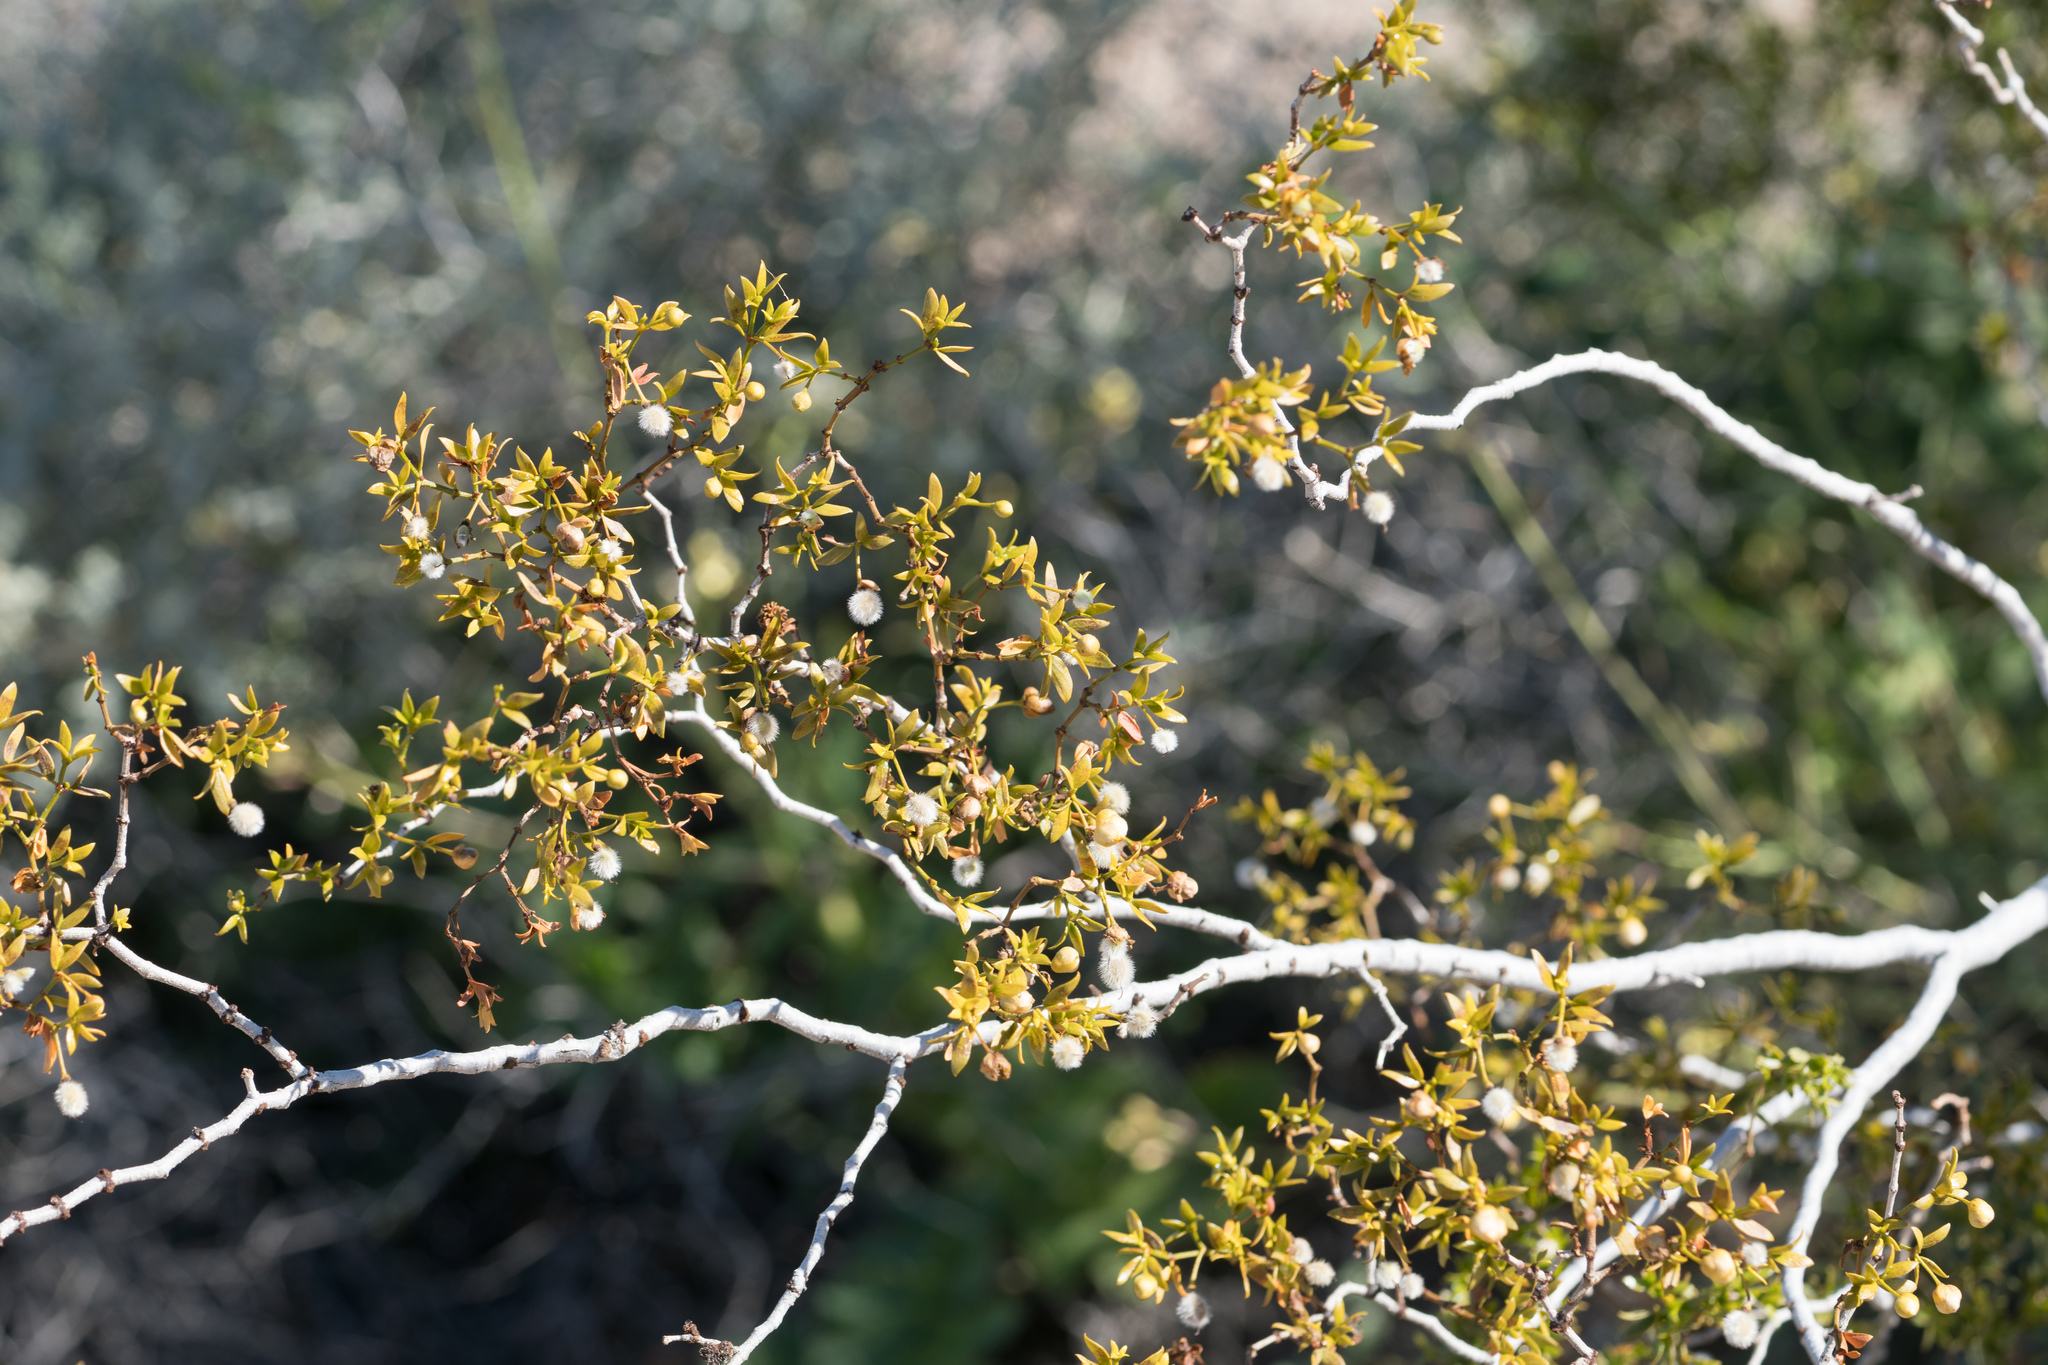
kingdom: Plantae
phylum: Tracheophyta
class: Magnoliopsida
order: Zygophyllales
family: Zygophyllaceae
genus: Larrea
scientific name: Larrea tridentata
